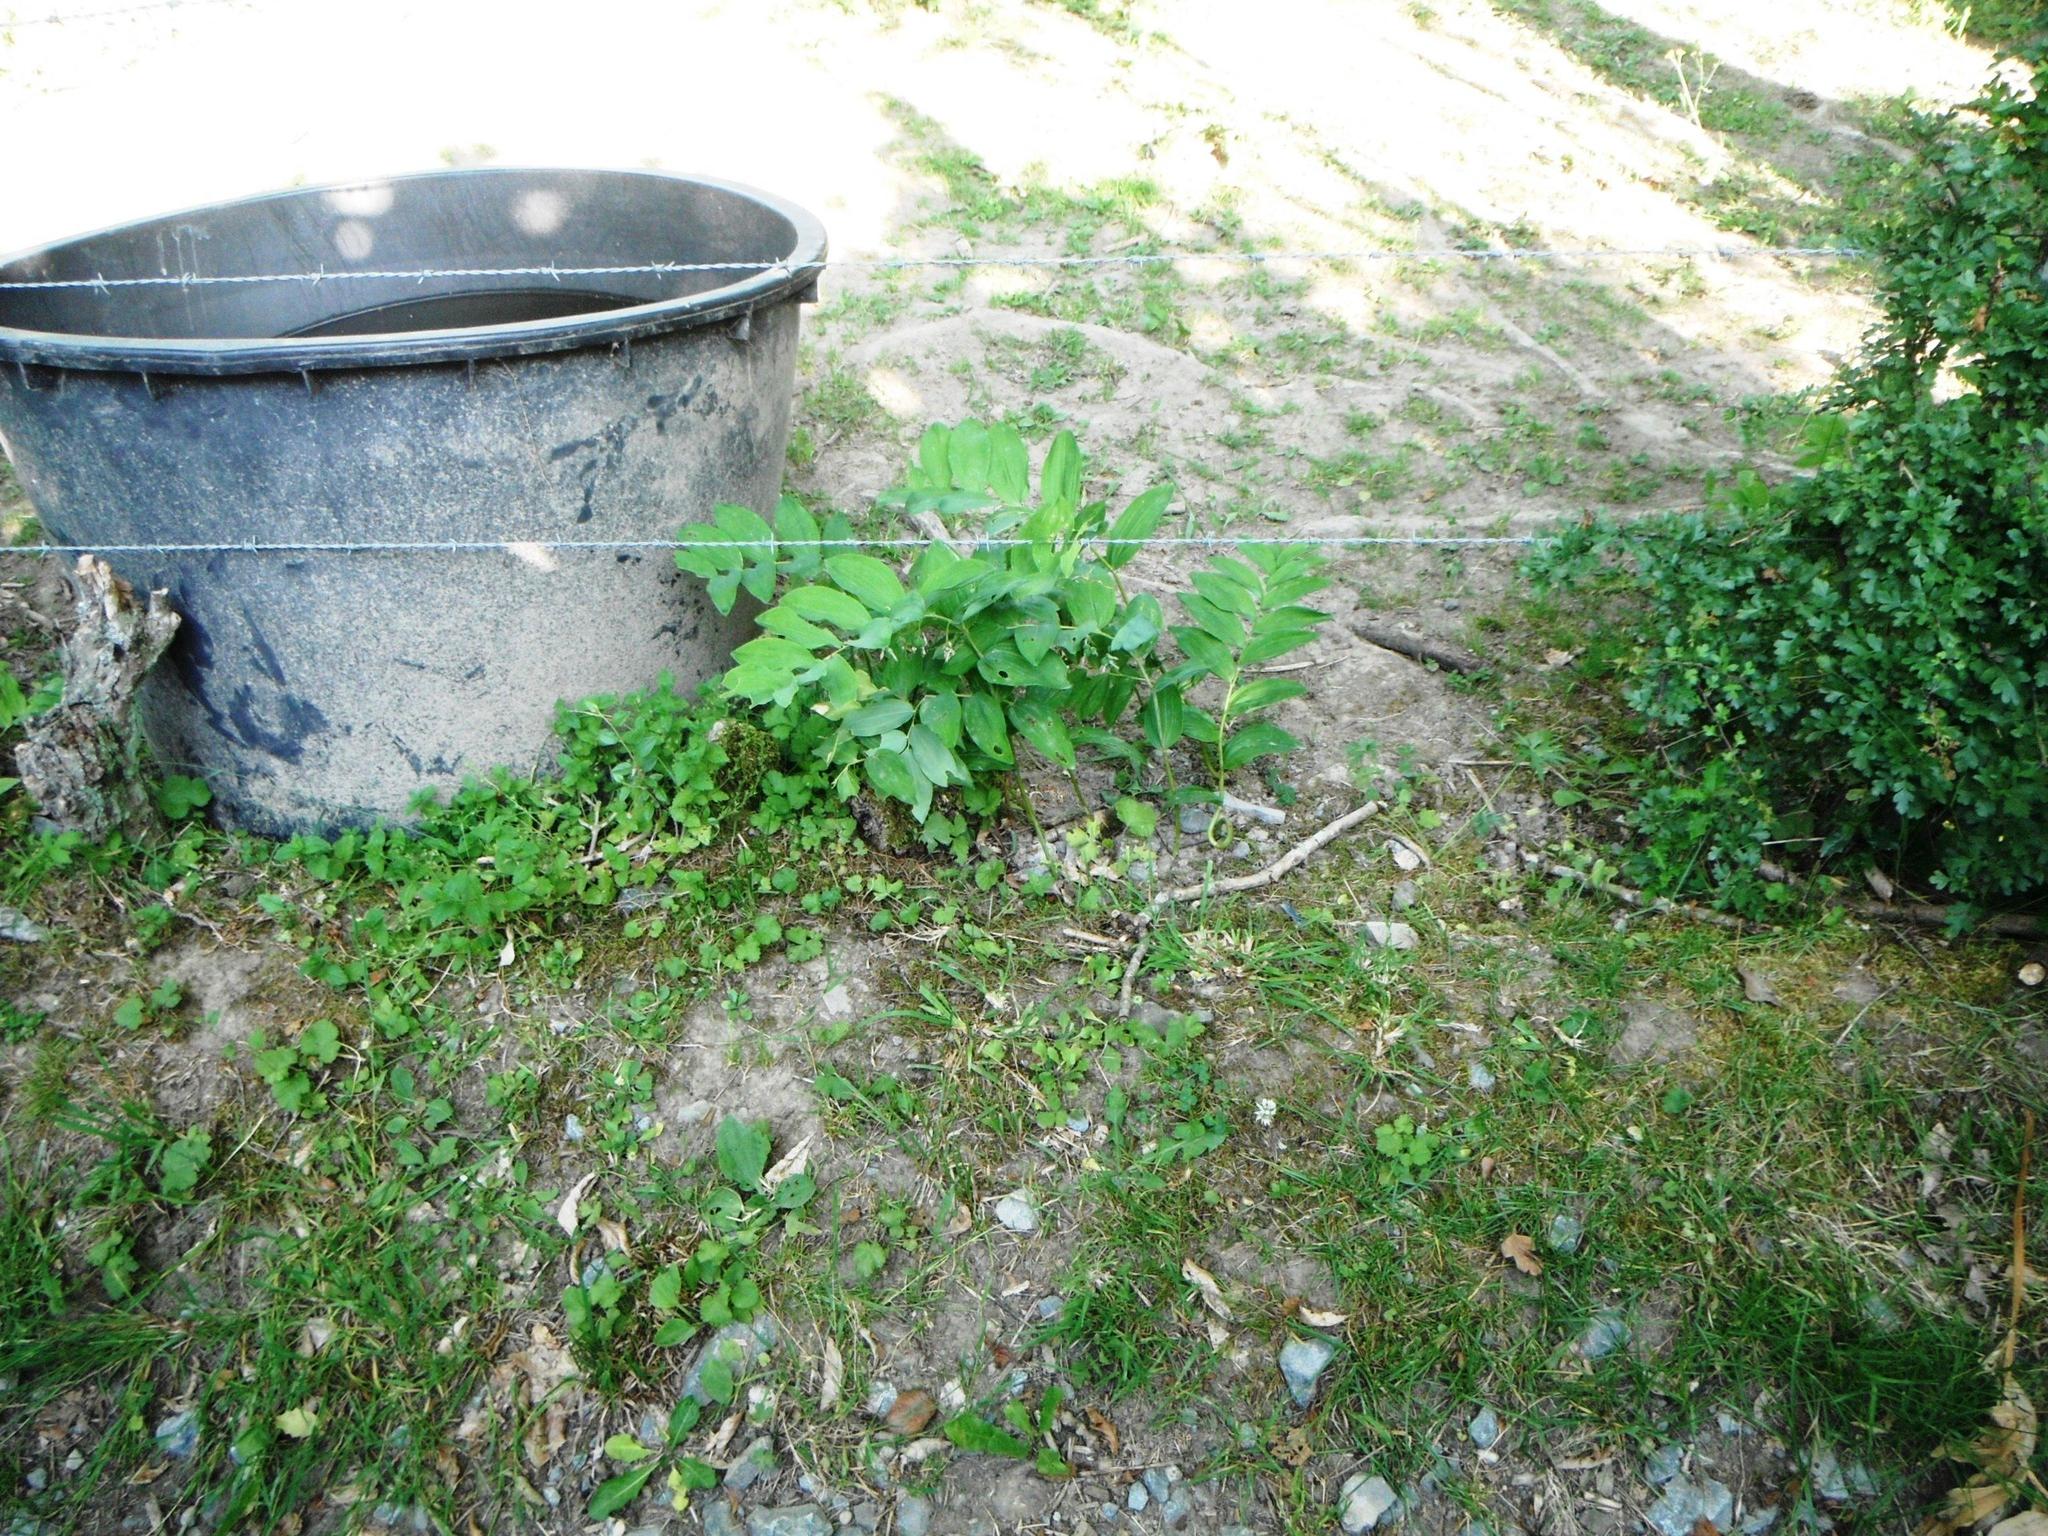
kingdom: Plantae
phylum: Tracheophyta
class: Liliopsida
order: Asparagales
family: Asparagaceae
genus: Polygonatum
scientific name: Polygonatum multiflorum
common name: Solomon's-seal
